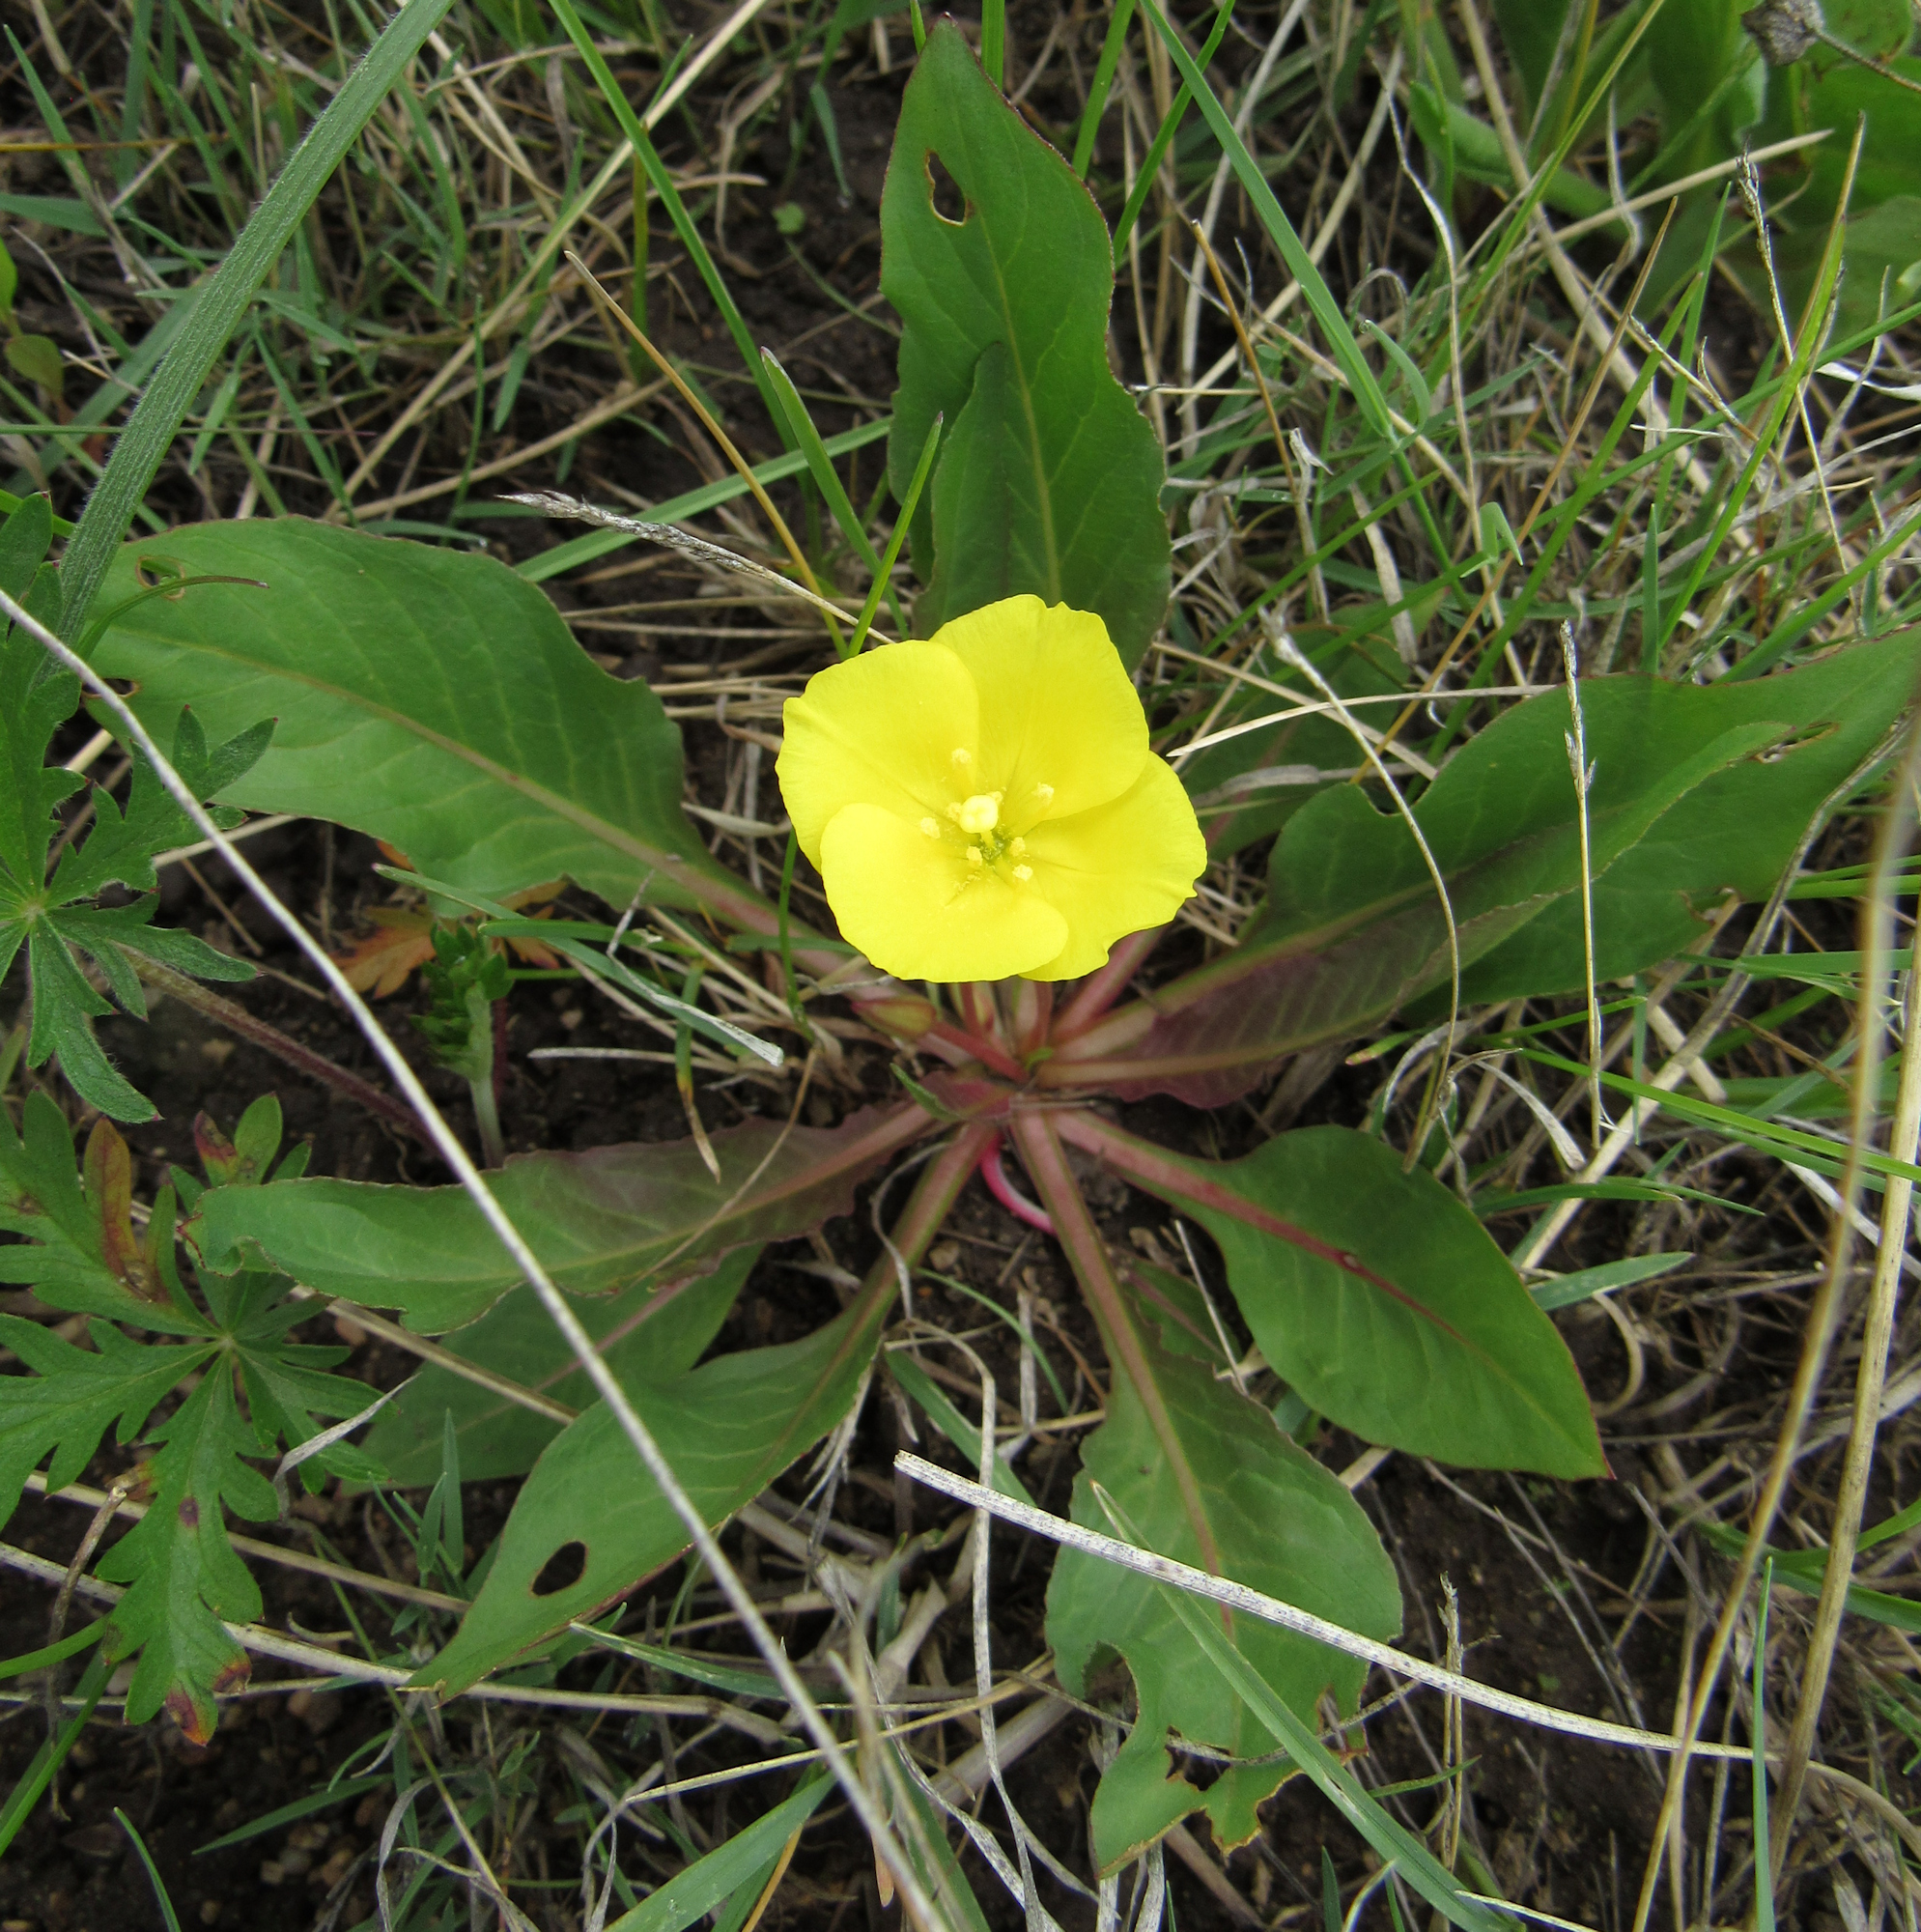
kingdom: Plantae
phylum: Tracheophyta
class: Magnoliopsida
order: Myrtales
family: Onagraceae
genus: Taraxia
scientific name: Taraxia subacaulis
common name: Diffuseflower evening primrose
